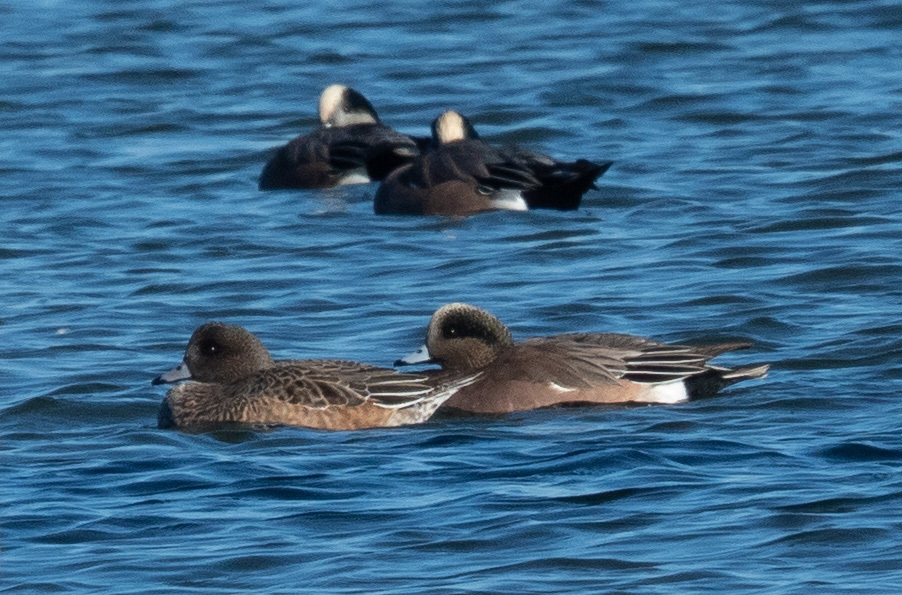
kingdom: Animalia
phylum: Chordata
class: Aves
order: Anseriformes
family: Anatidae
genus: Mareca
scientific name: Mareca americana
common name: American wigeon
